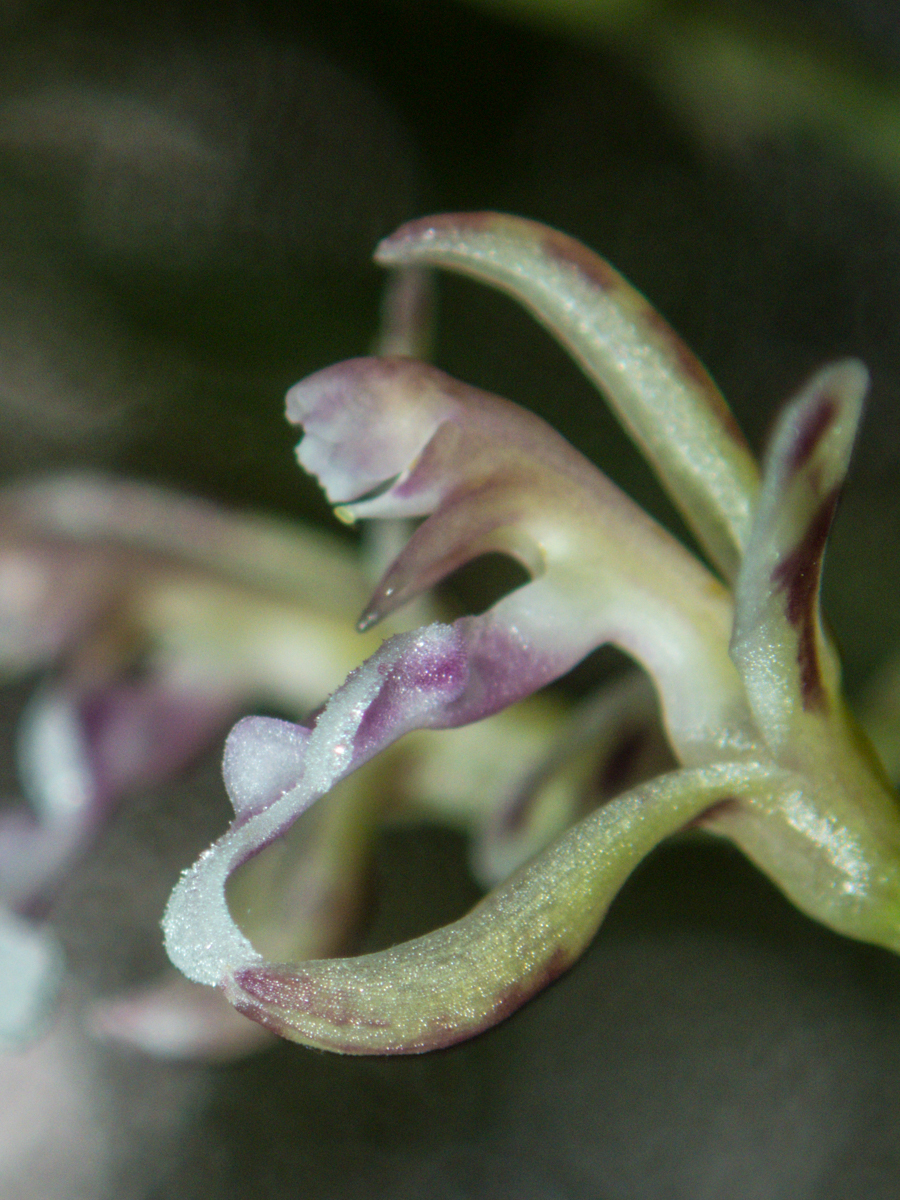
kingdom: Plantae
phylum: Tracheophyta
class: Liliopsida
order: Asparagales
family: Orchidaceae
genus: Acriopsis
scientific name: Acriopsis liliifolia
